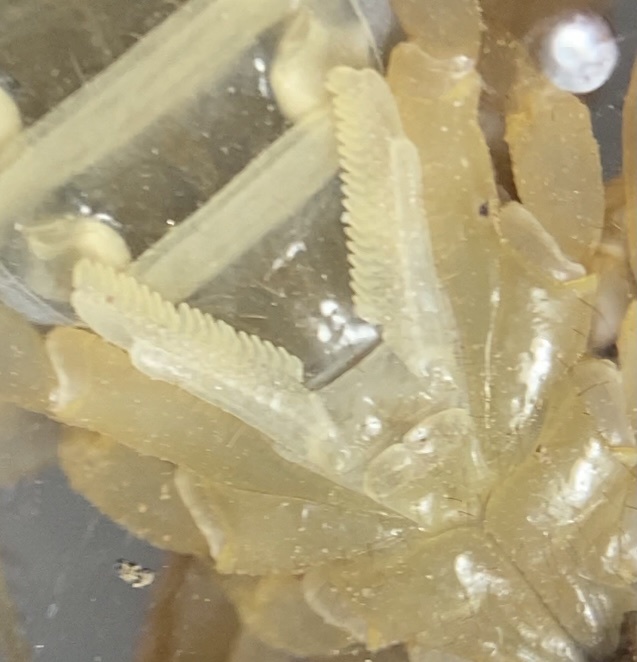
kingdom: Animalia
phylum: Arthropoda
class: Arachnida
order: Scorpiones
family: Vaejovidae
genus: Paravaejovis
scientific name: Paravaejovis spinigerus
